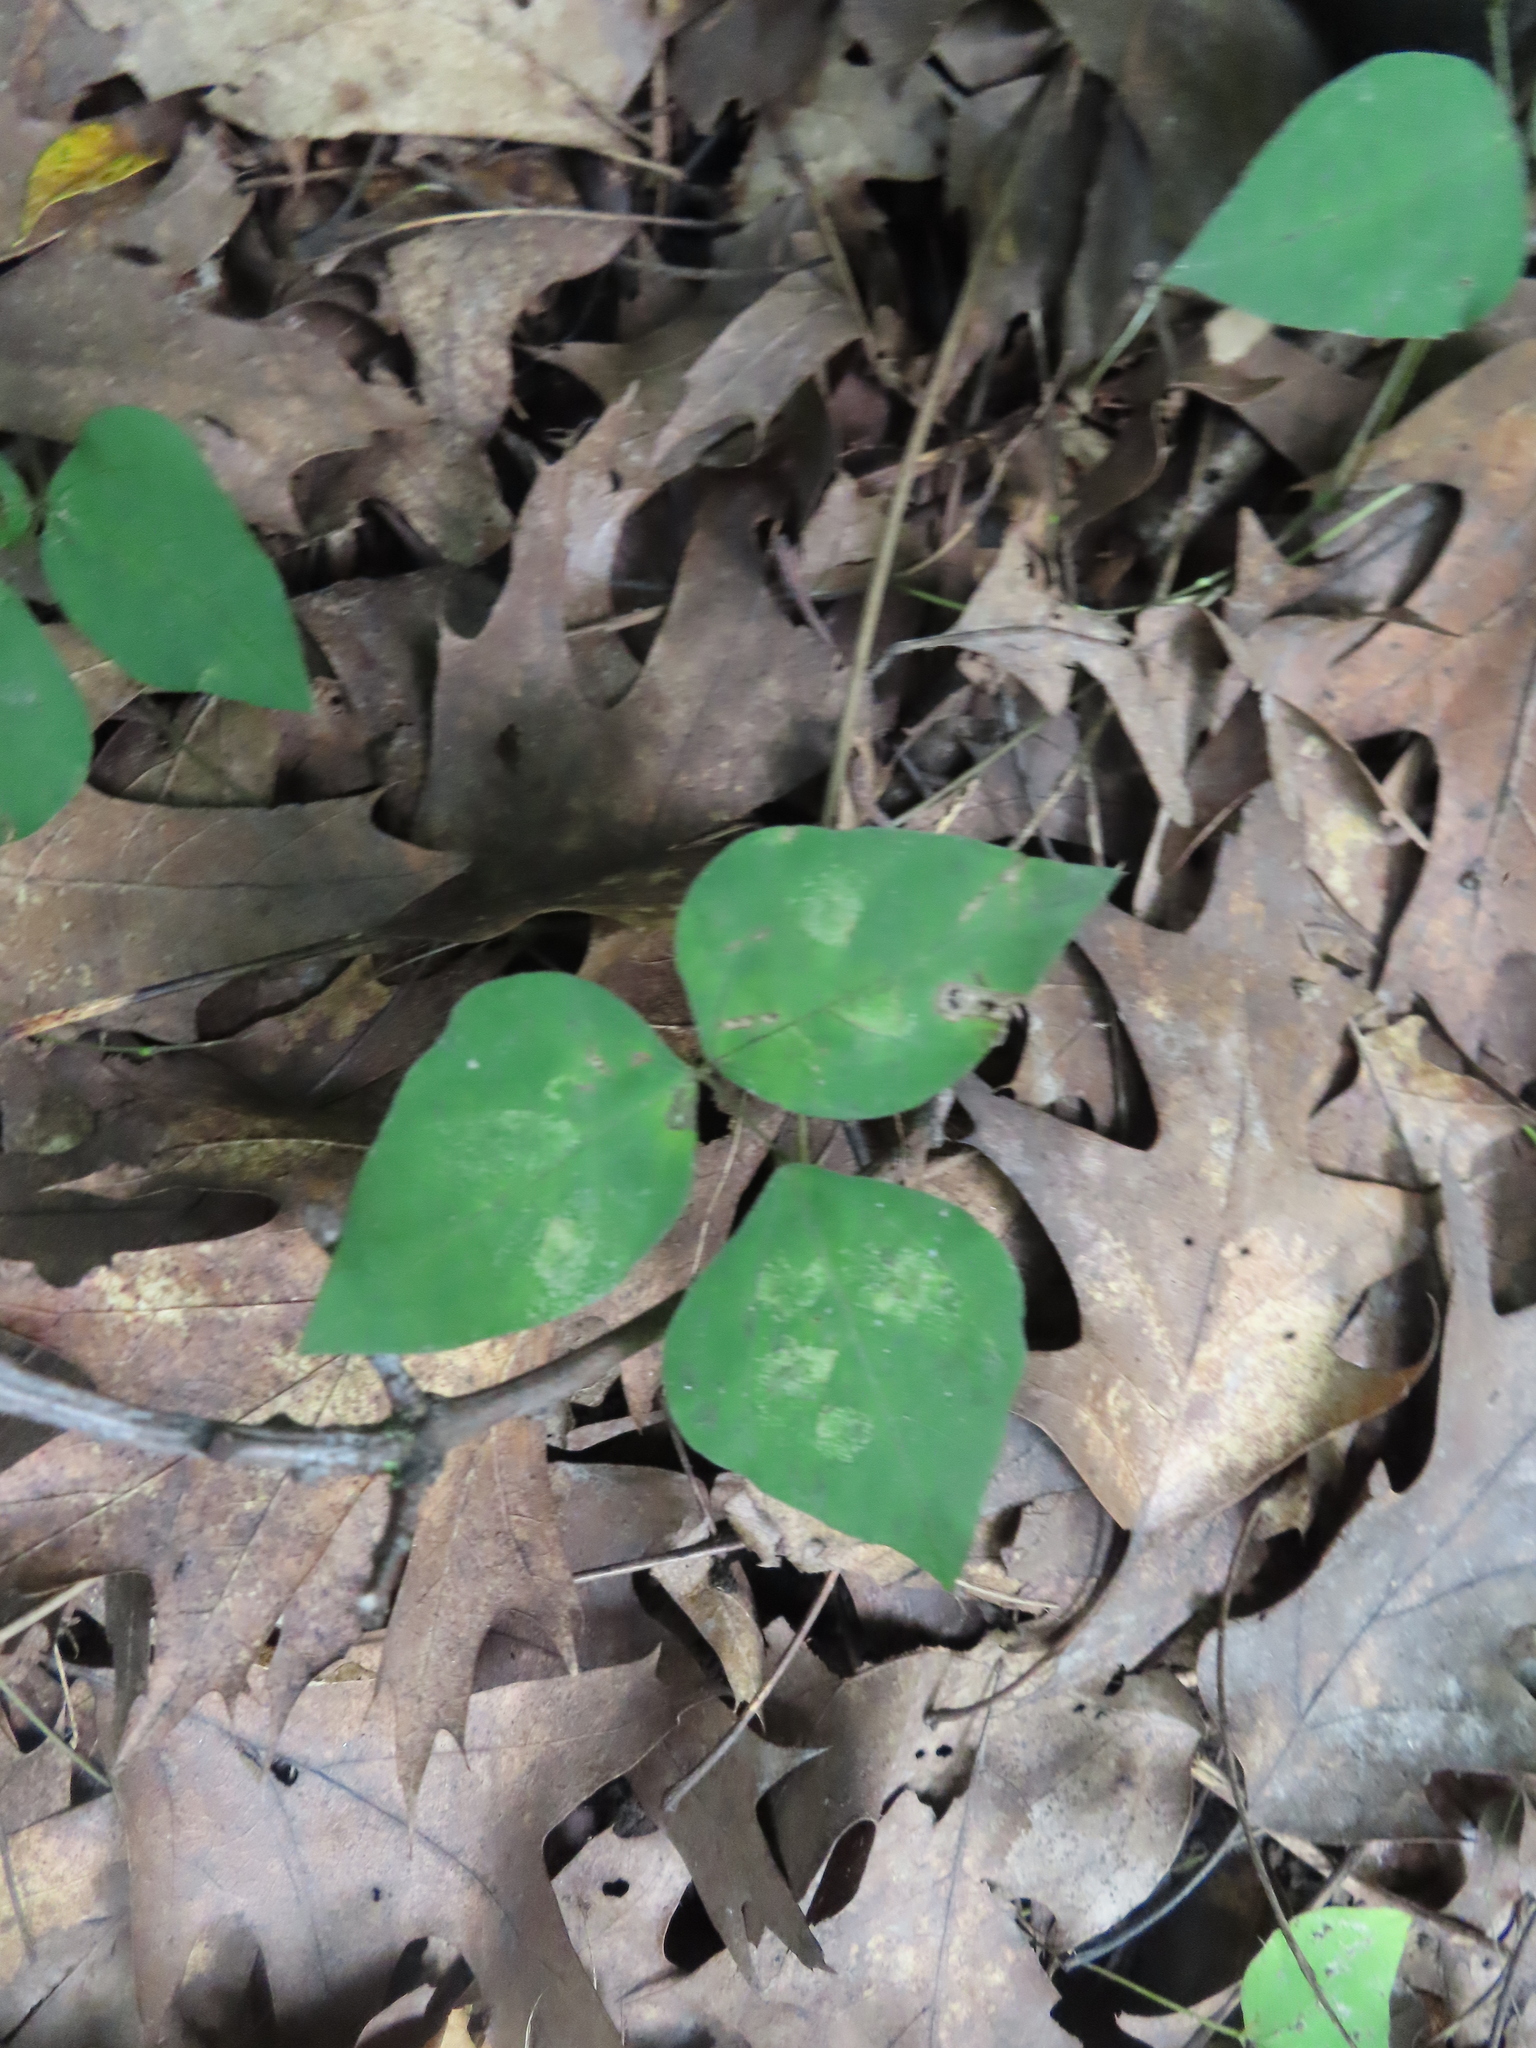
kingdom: Plantae
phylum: Tracheophyta
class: Magnoliopsida
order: Fabales
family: Fabaceae
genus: Amphicarpaea
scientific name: Amphicarpaea bracteata
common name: American hog peanut
